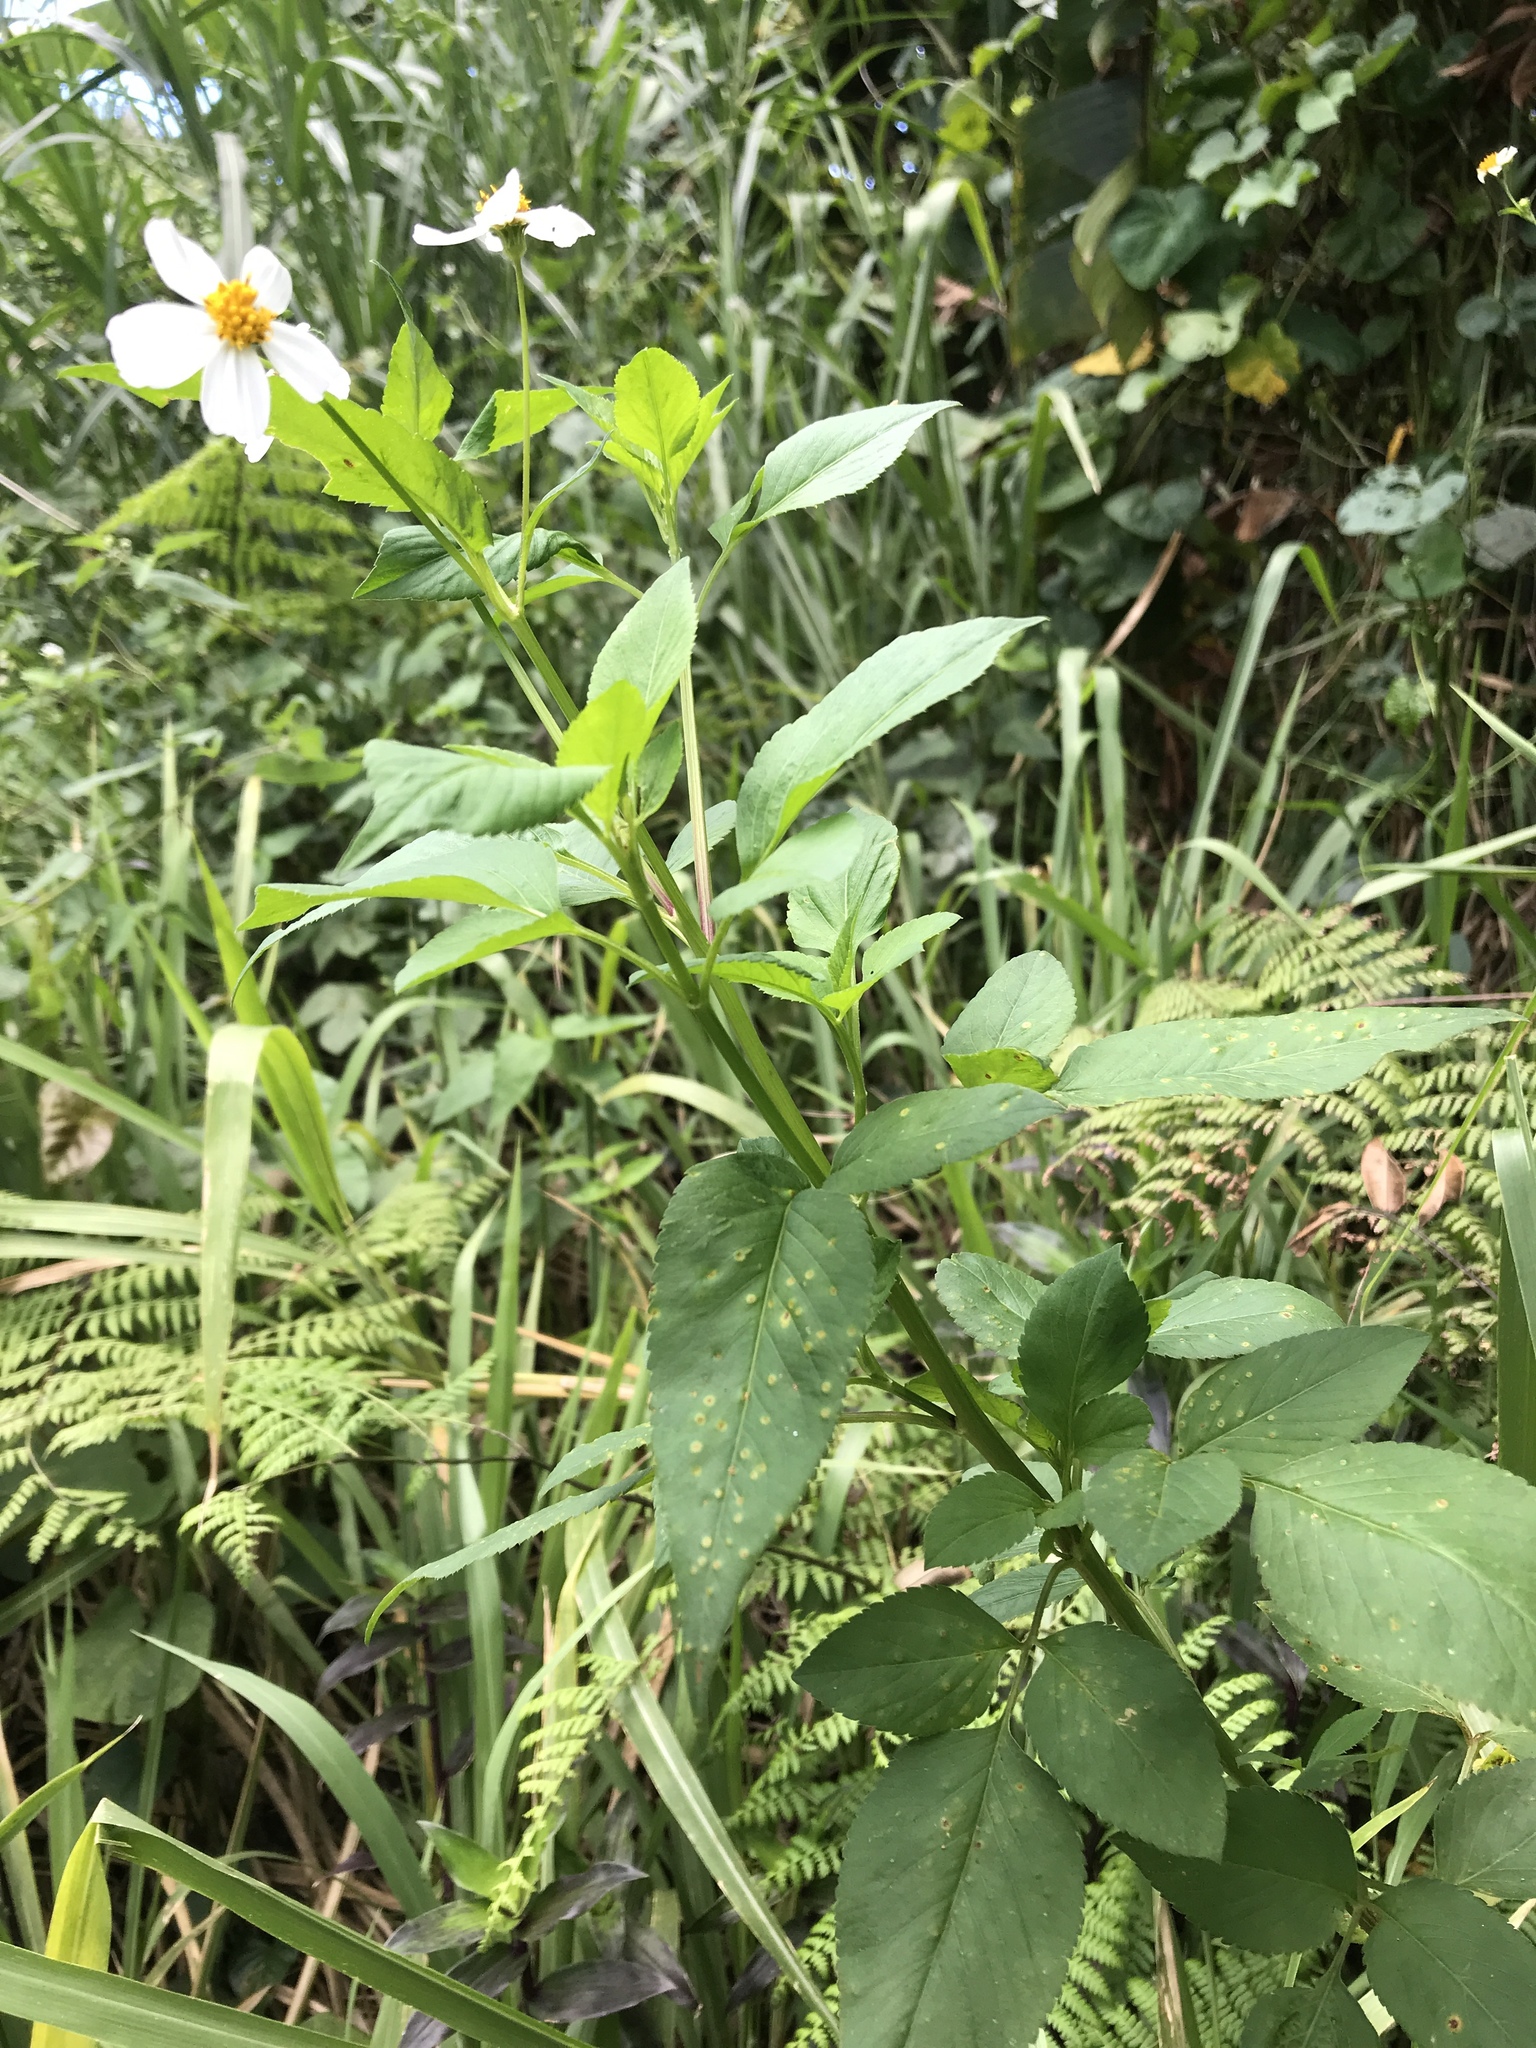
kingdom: Plantae
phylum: Tracheophyta
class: Magnoliopsida
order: Asterales
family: Asteraceae
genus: Bidens
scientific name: Bidens alba
